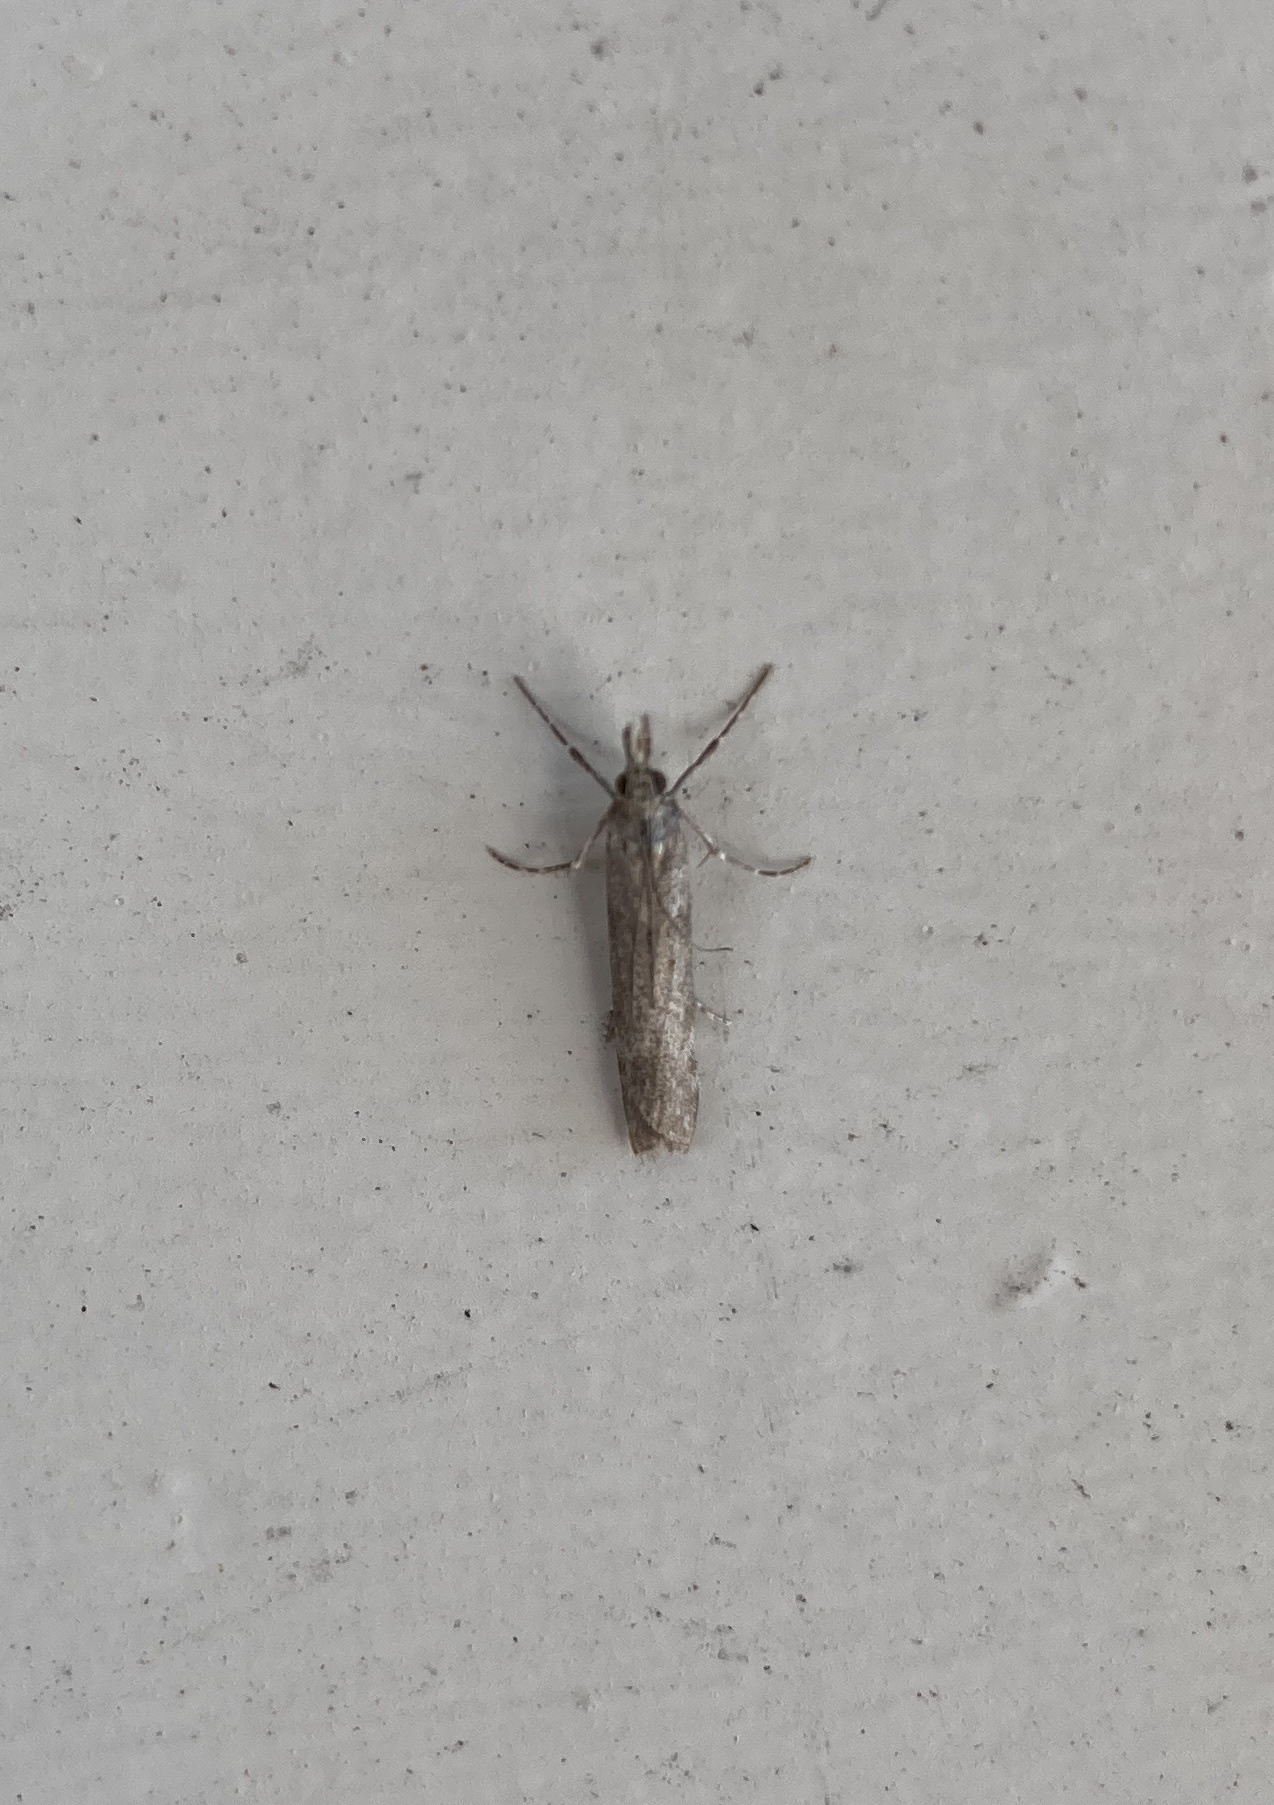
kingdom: Animalia
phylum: Arthropoda
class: Insecta
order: Lepidoptera
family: Crambidae
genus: Eudonia
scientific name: Eudonia leptalea
